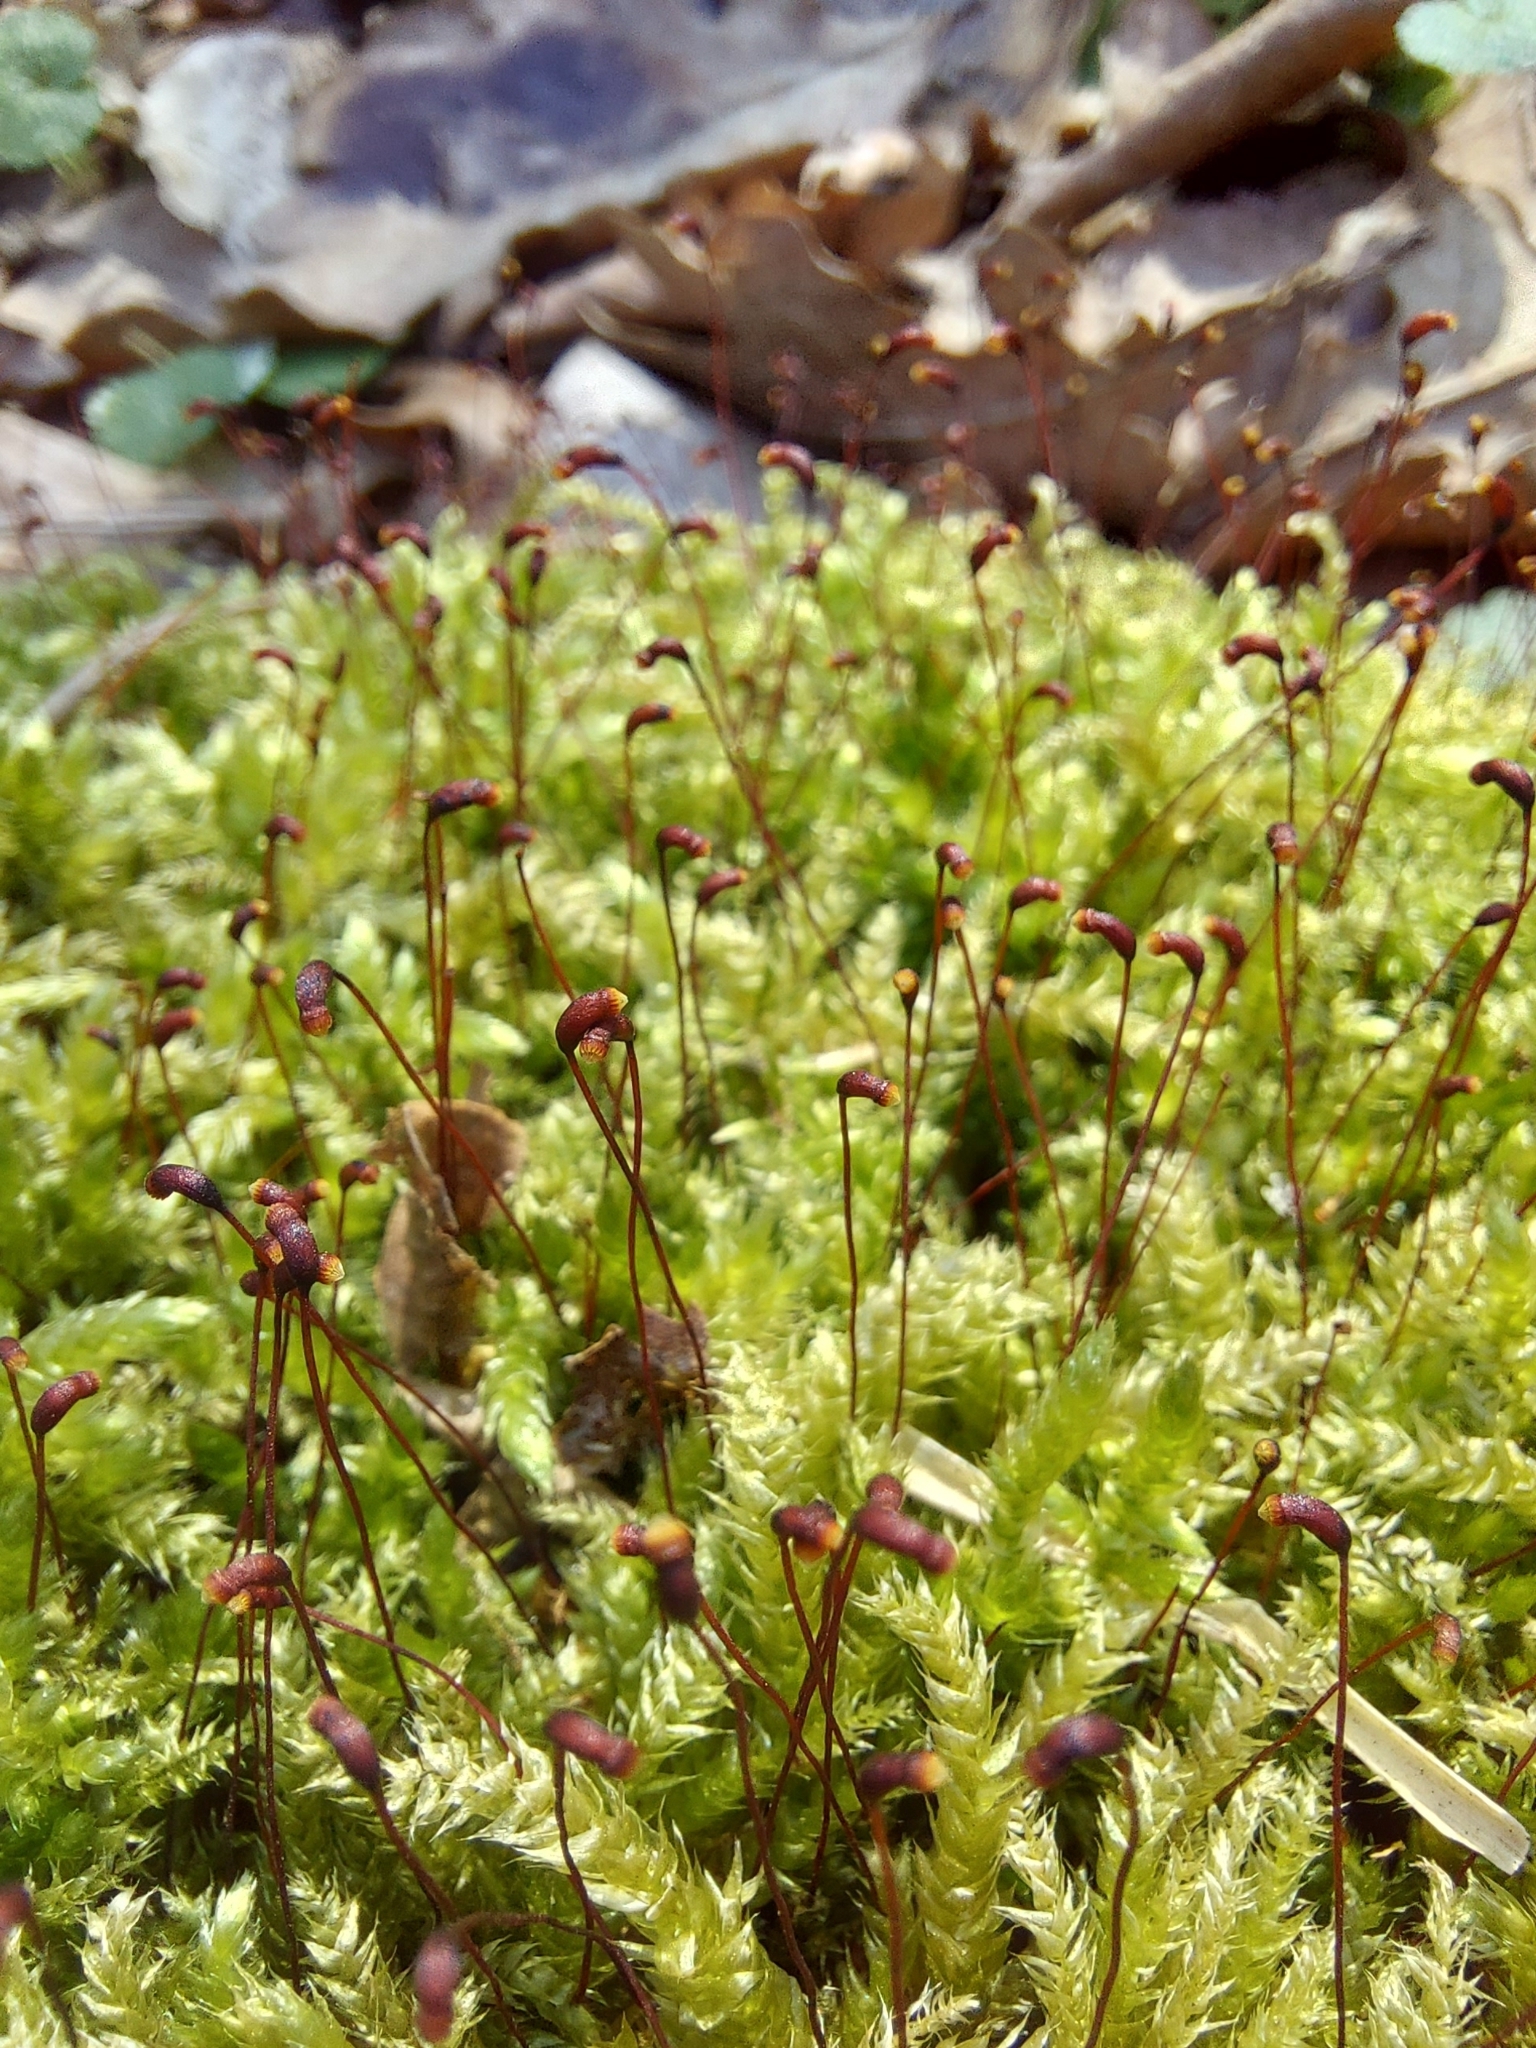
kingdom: Plantae
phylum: Bryophyta
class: Bryopsida
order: Hypnales
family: Brachytheciaceae
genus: Brachythecium
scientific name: Brachythecium rutabulum
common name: Rough-stalked feather-moss
